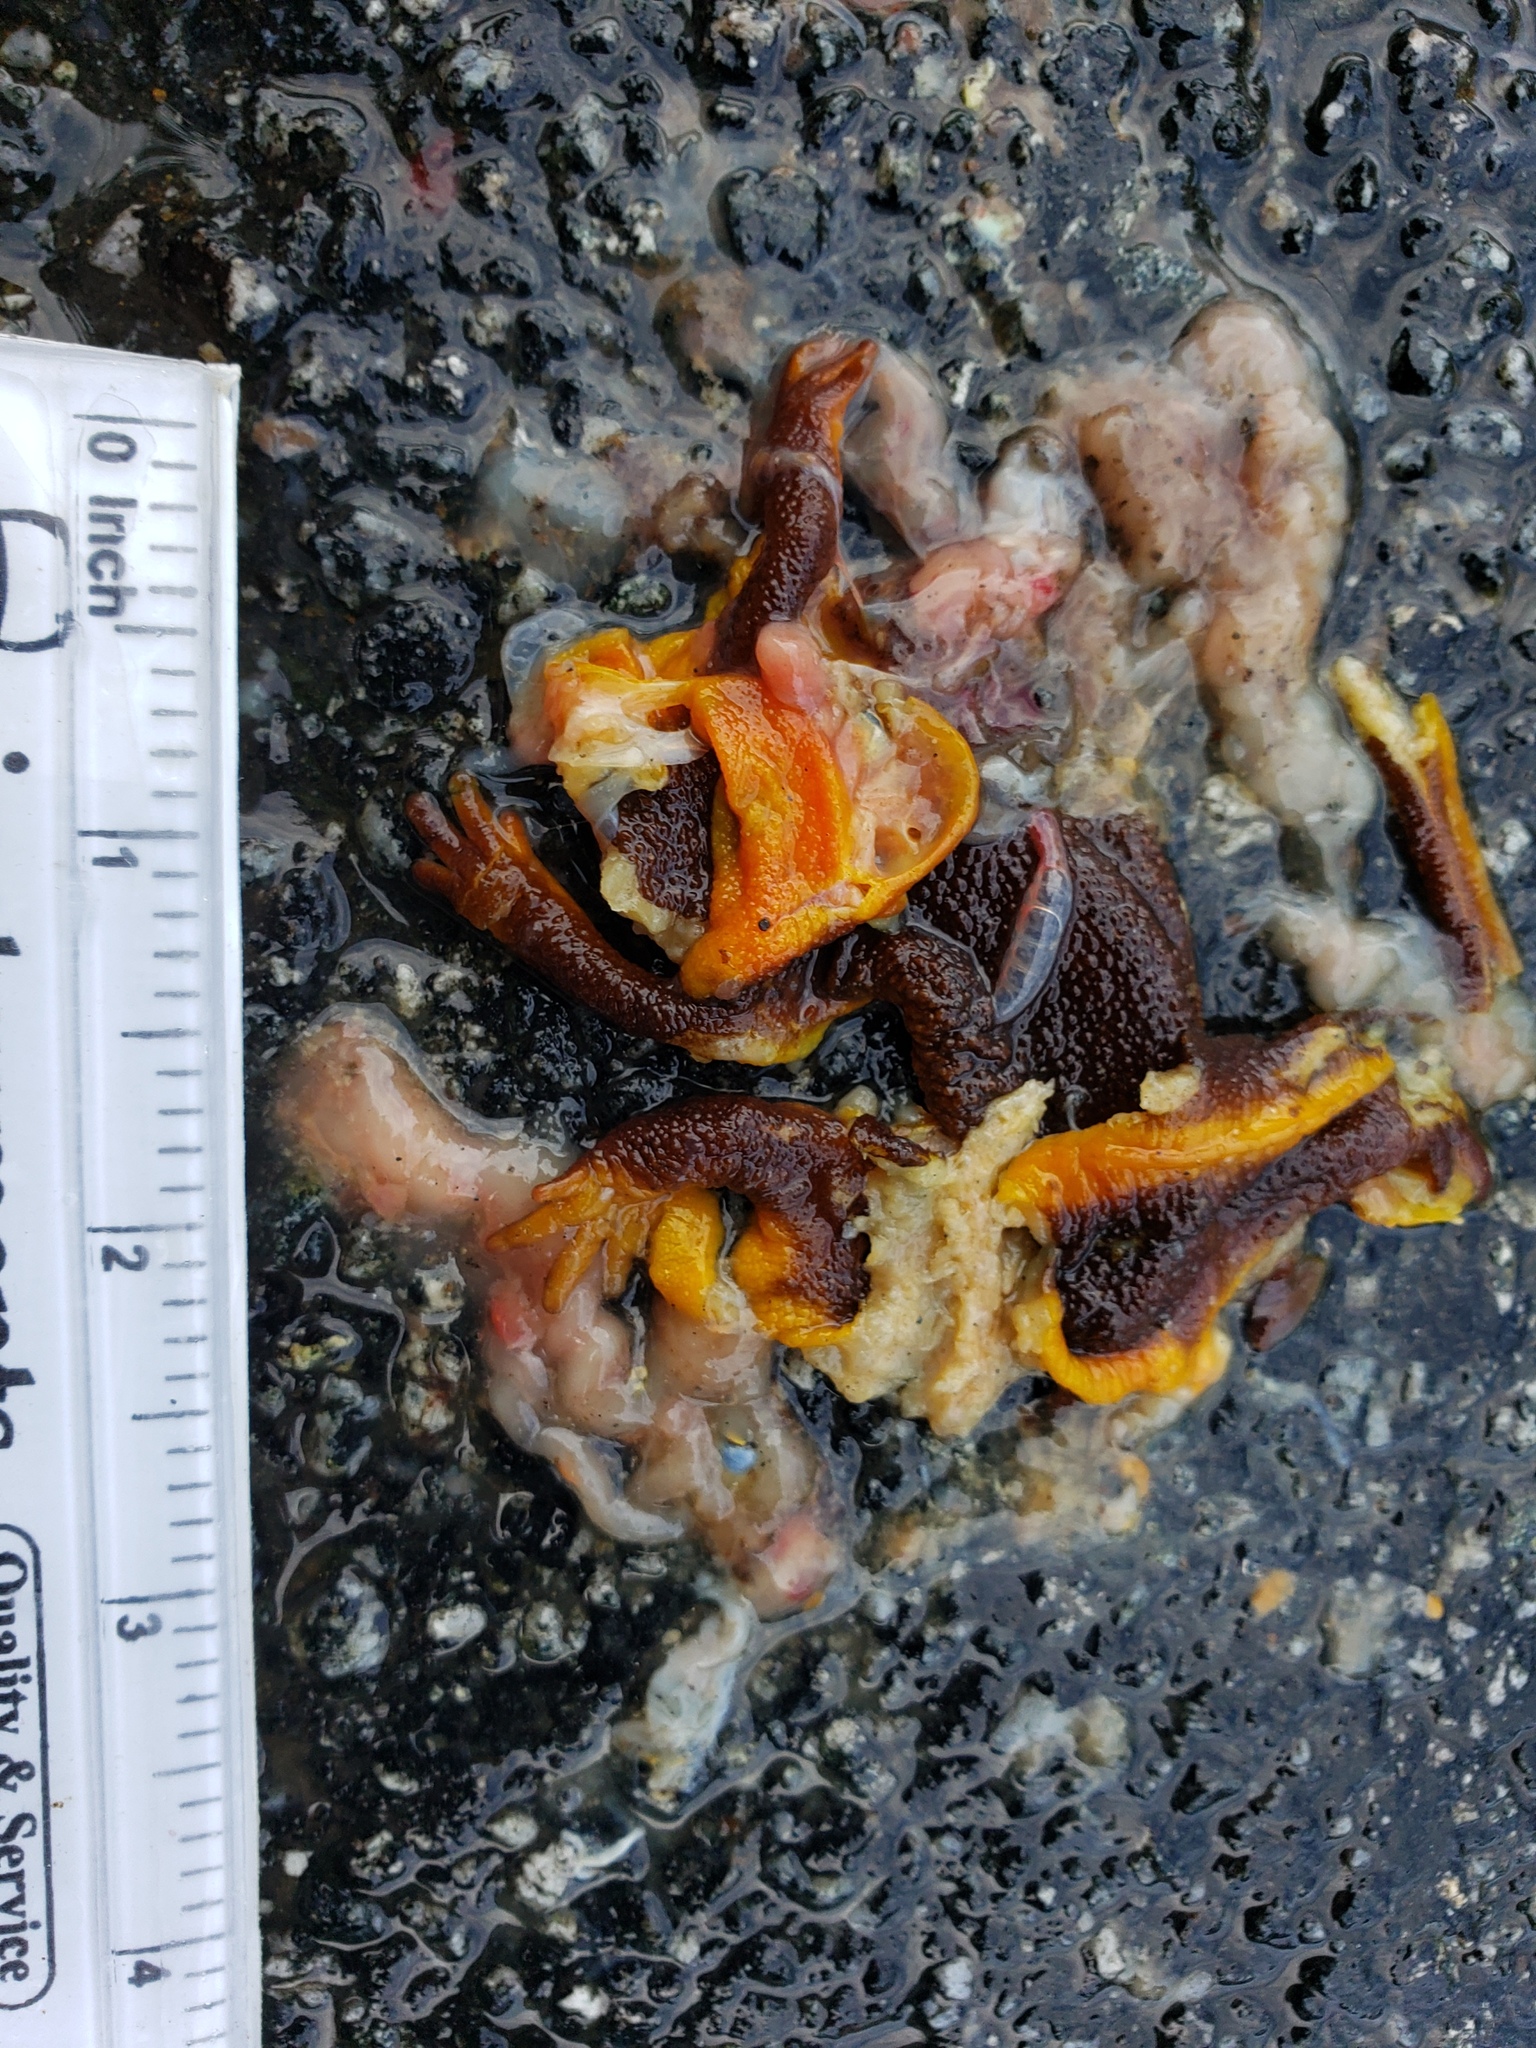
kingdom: Animalia
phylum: Chordata
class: Amphibia
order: Caudata
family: Salamandridae
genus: Taricha
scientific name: Taricha
